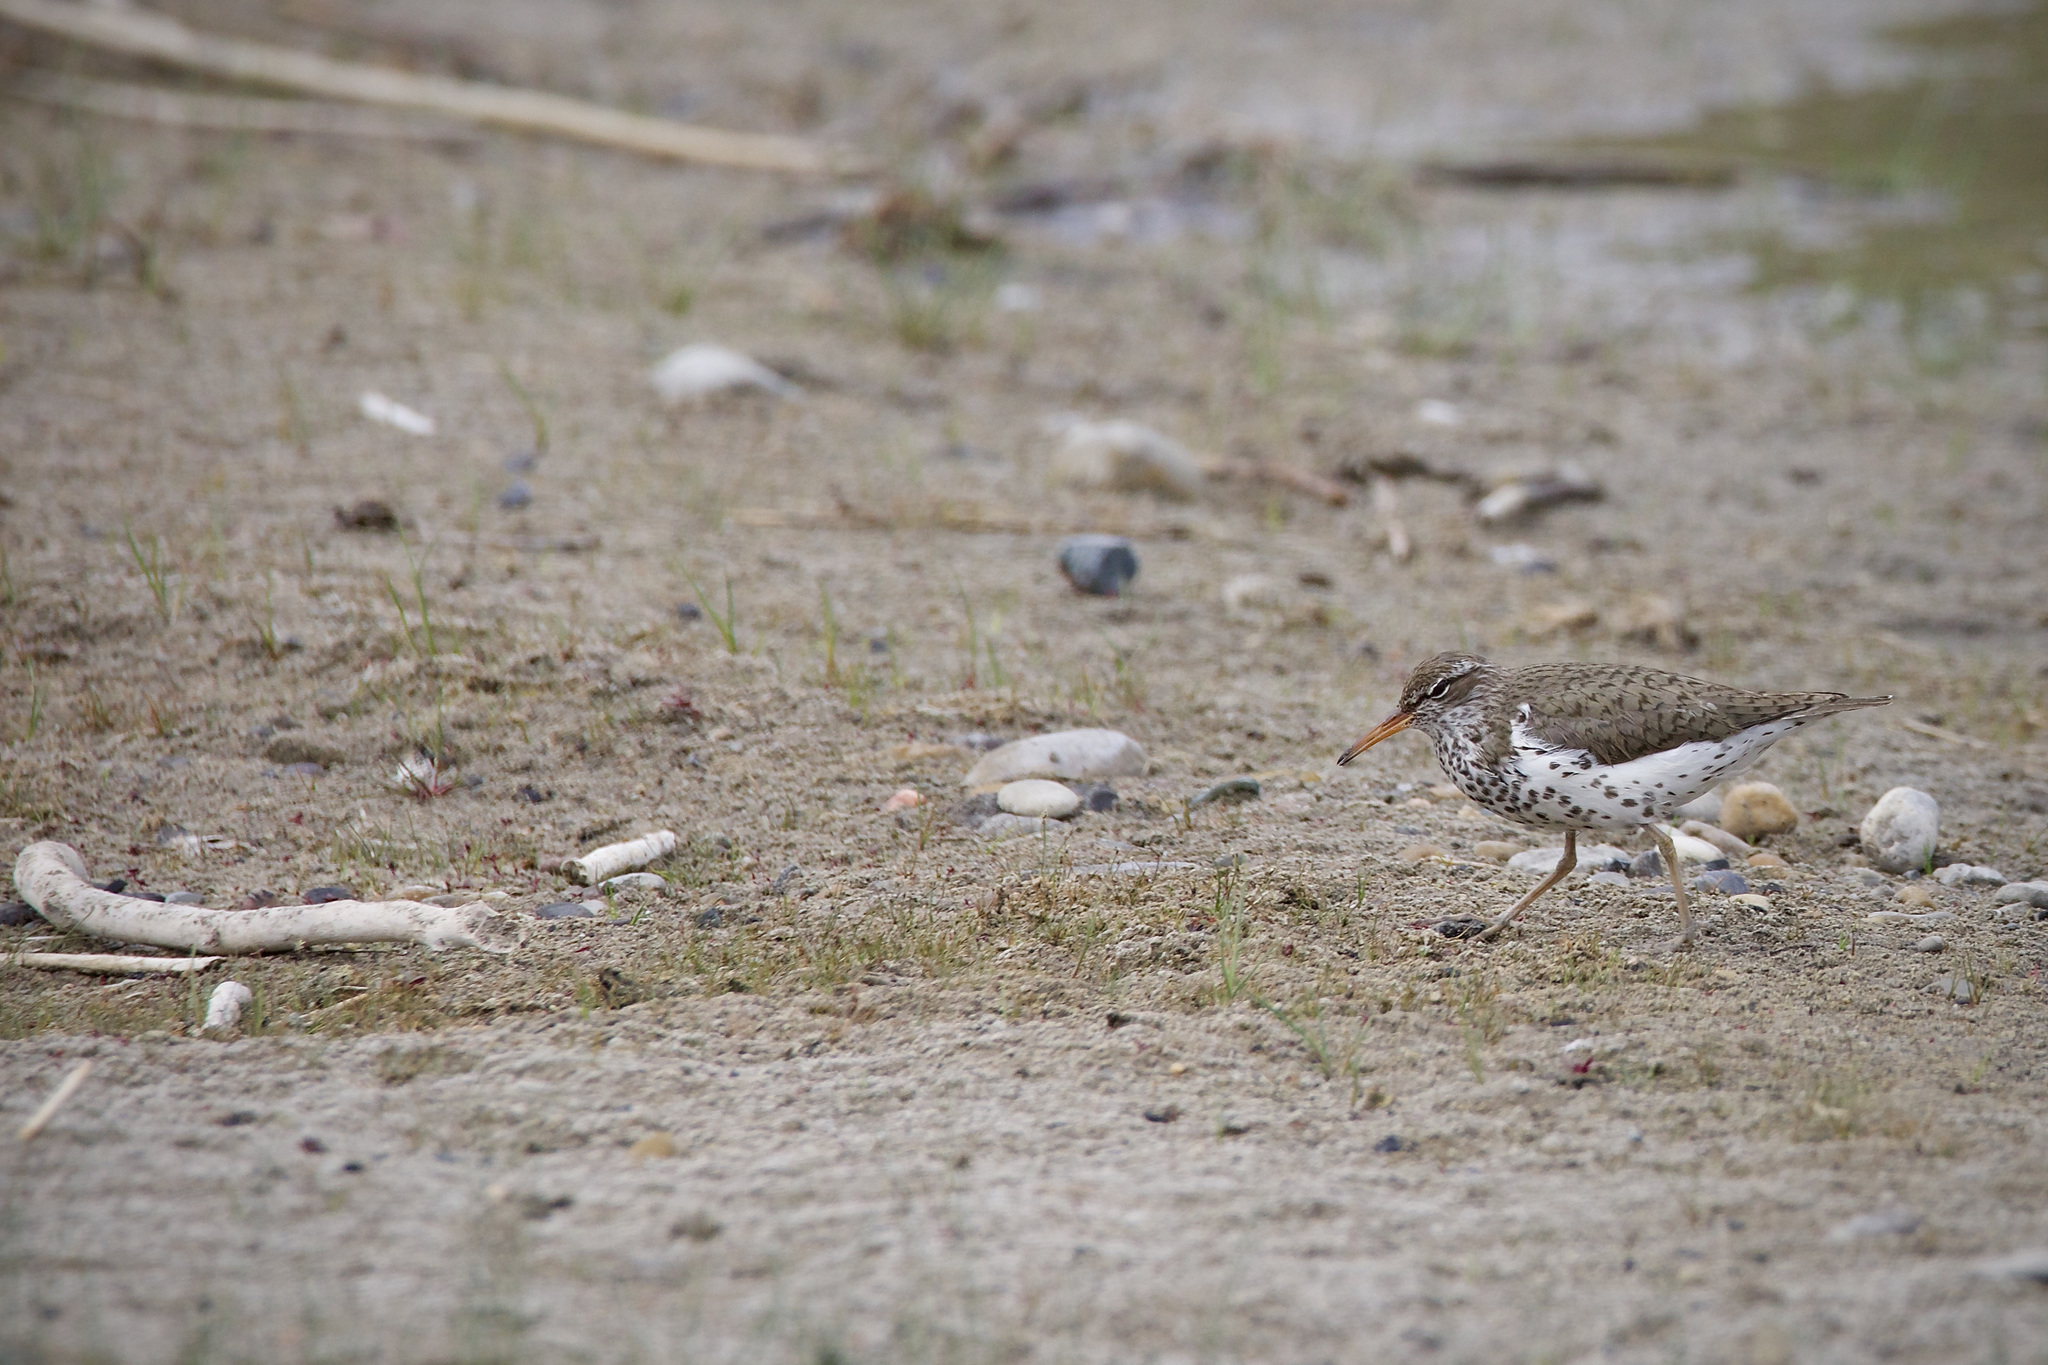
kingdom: Animalia
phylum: Chordata
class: Aves
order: Charadriiformes
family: Scolopacidae
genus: Actitis
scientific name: Actitis macularius
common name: Spotted sandpiper
